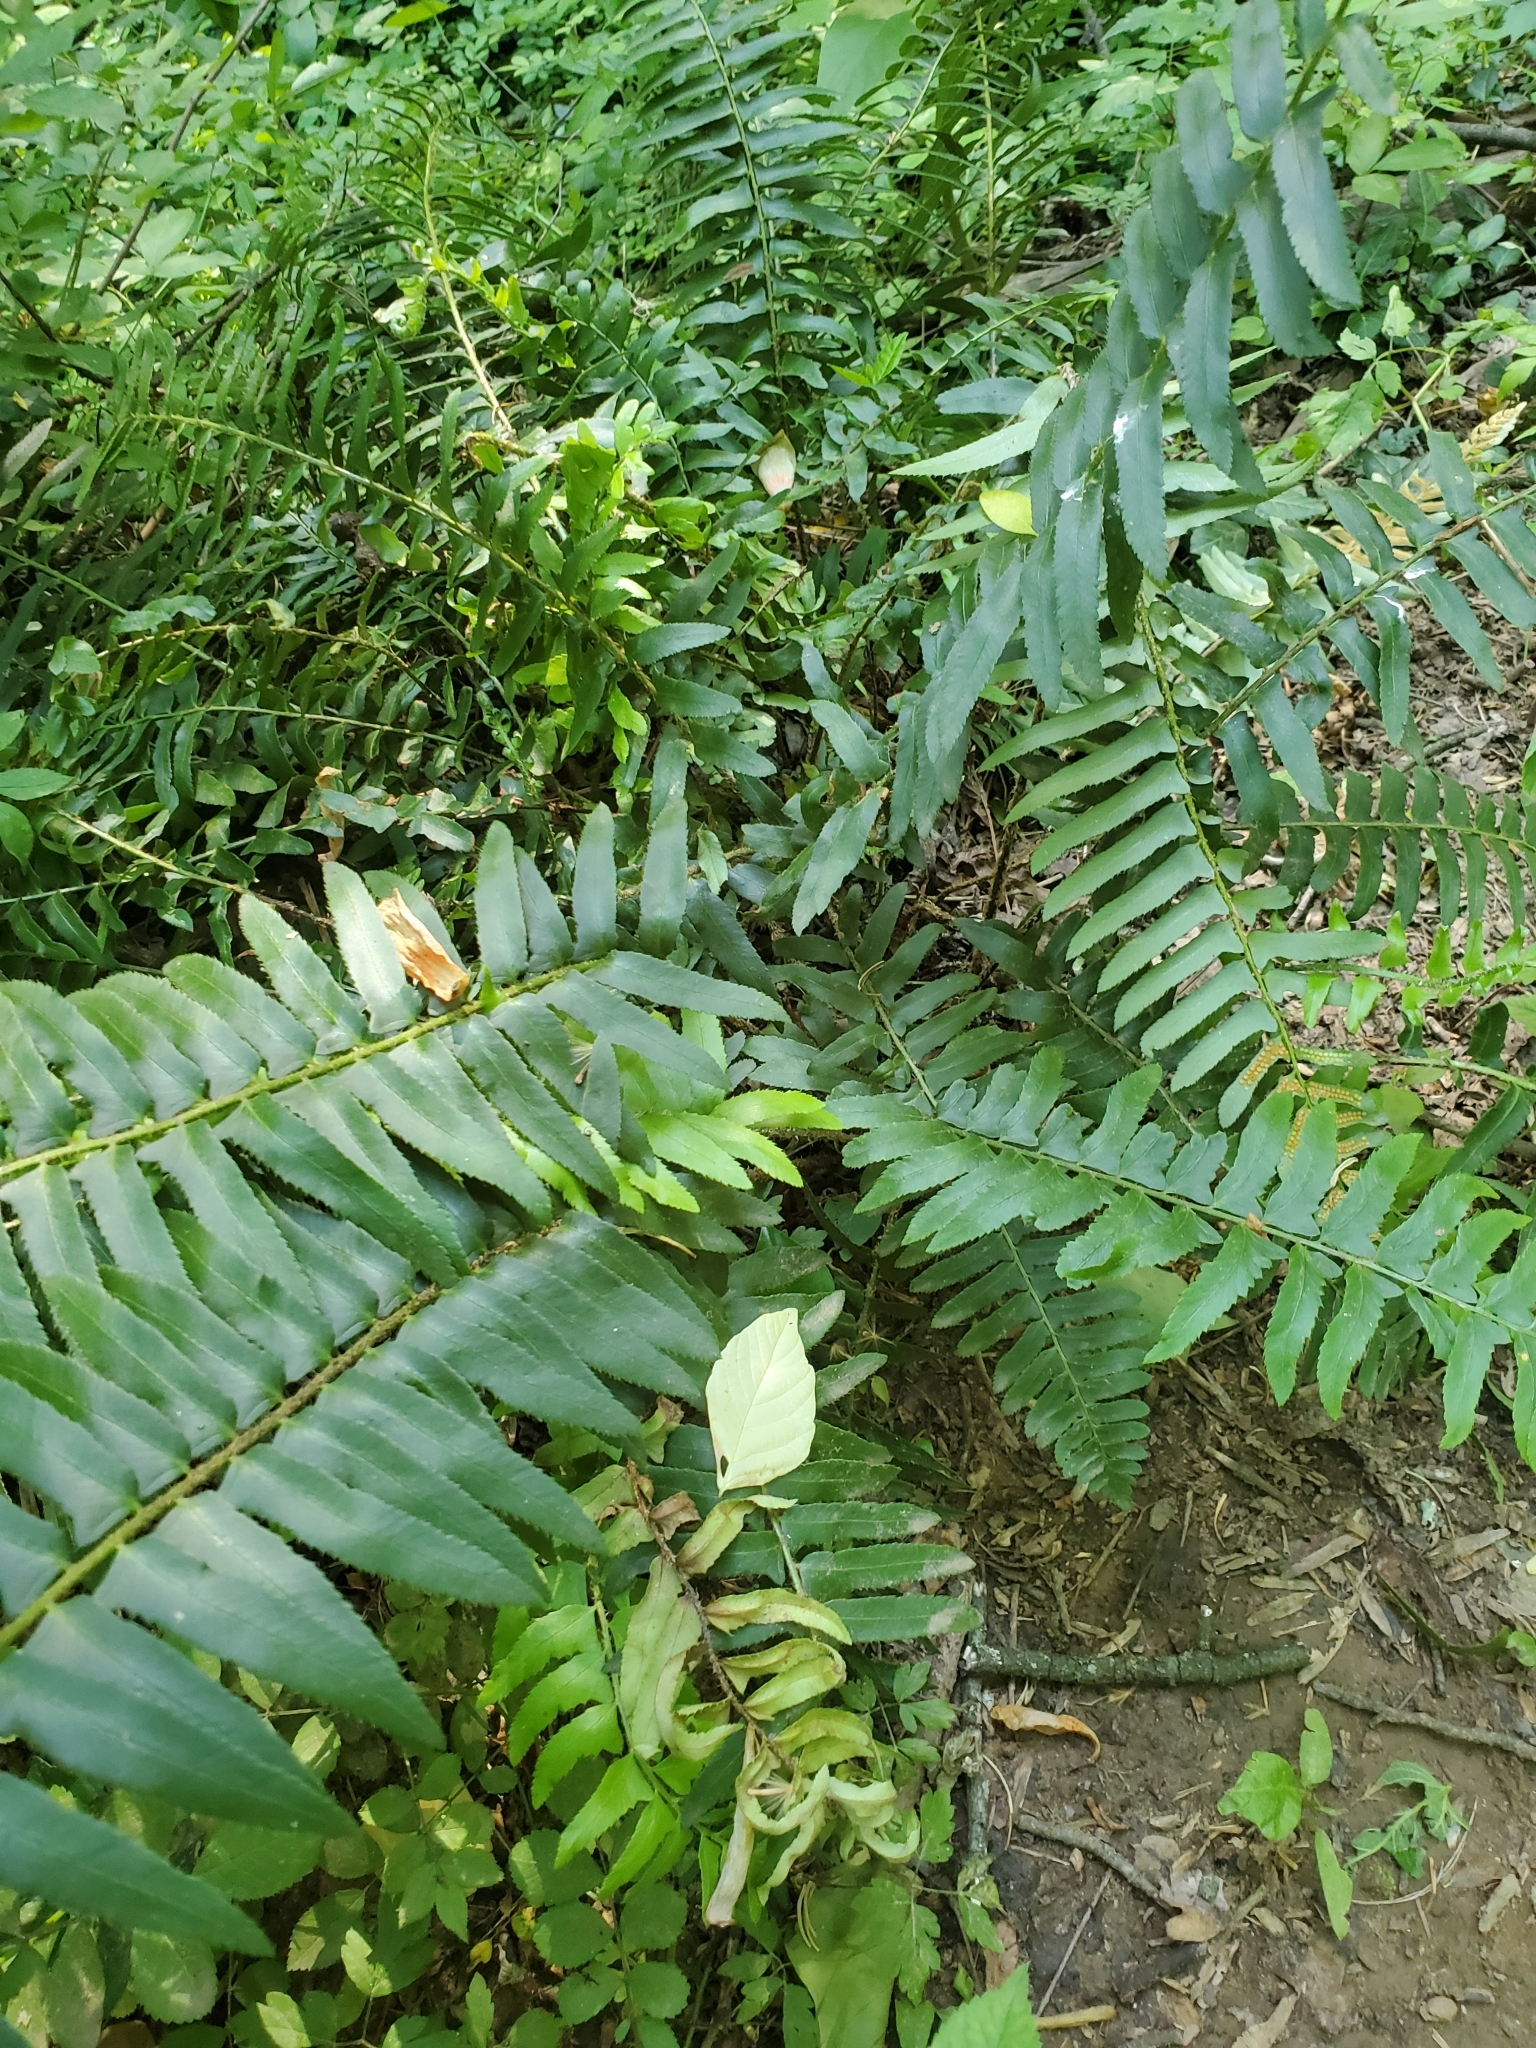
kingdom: Plantae
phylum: Tracheophyta
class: Polypodiopsida
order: Polypodiales
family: Dryopteridaceae
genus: Polystichum
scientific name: Polystichum acrostichoides
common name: Christmas fern
